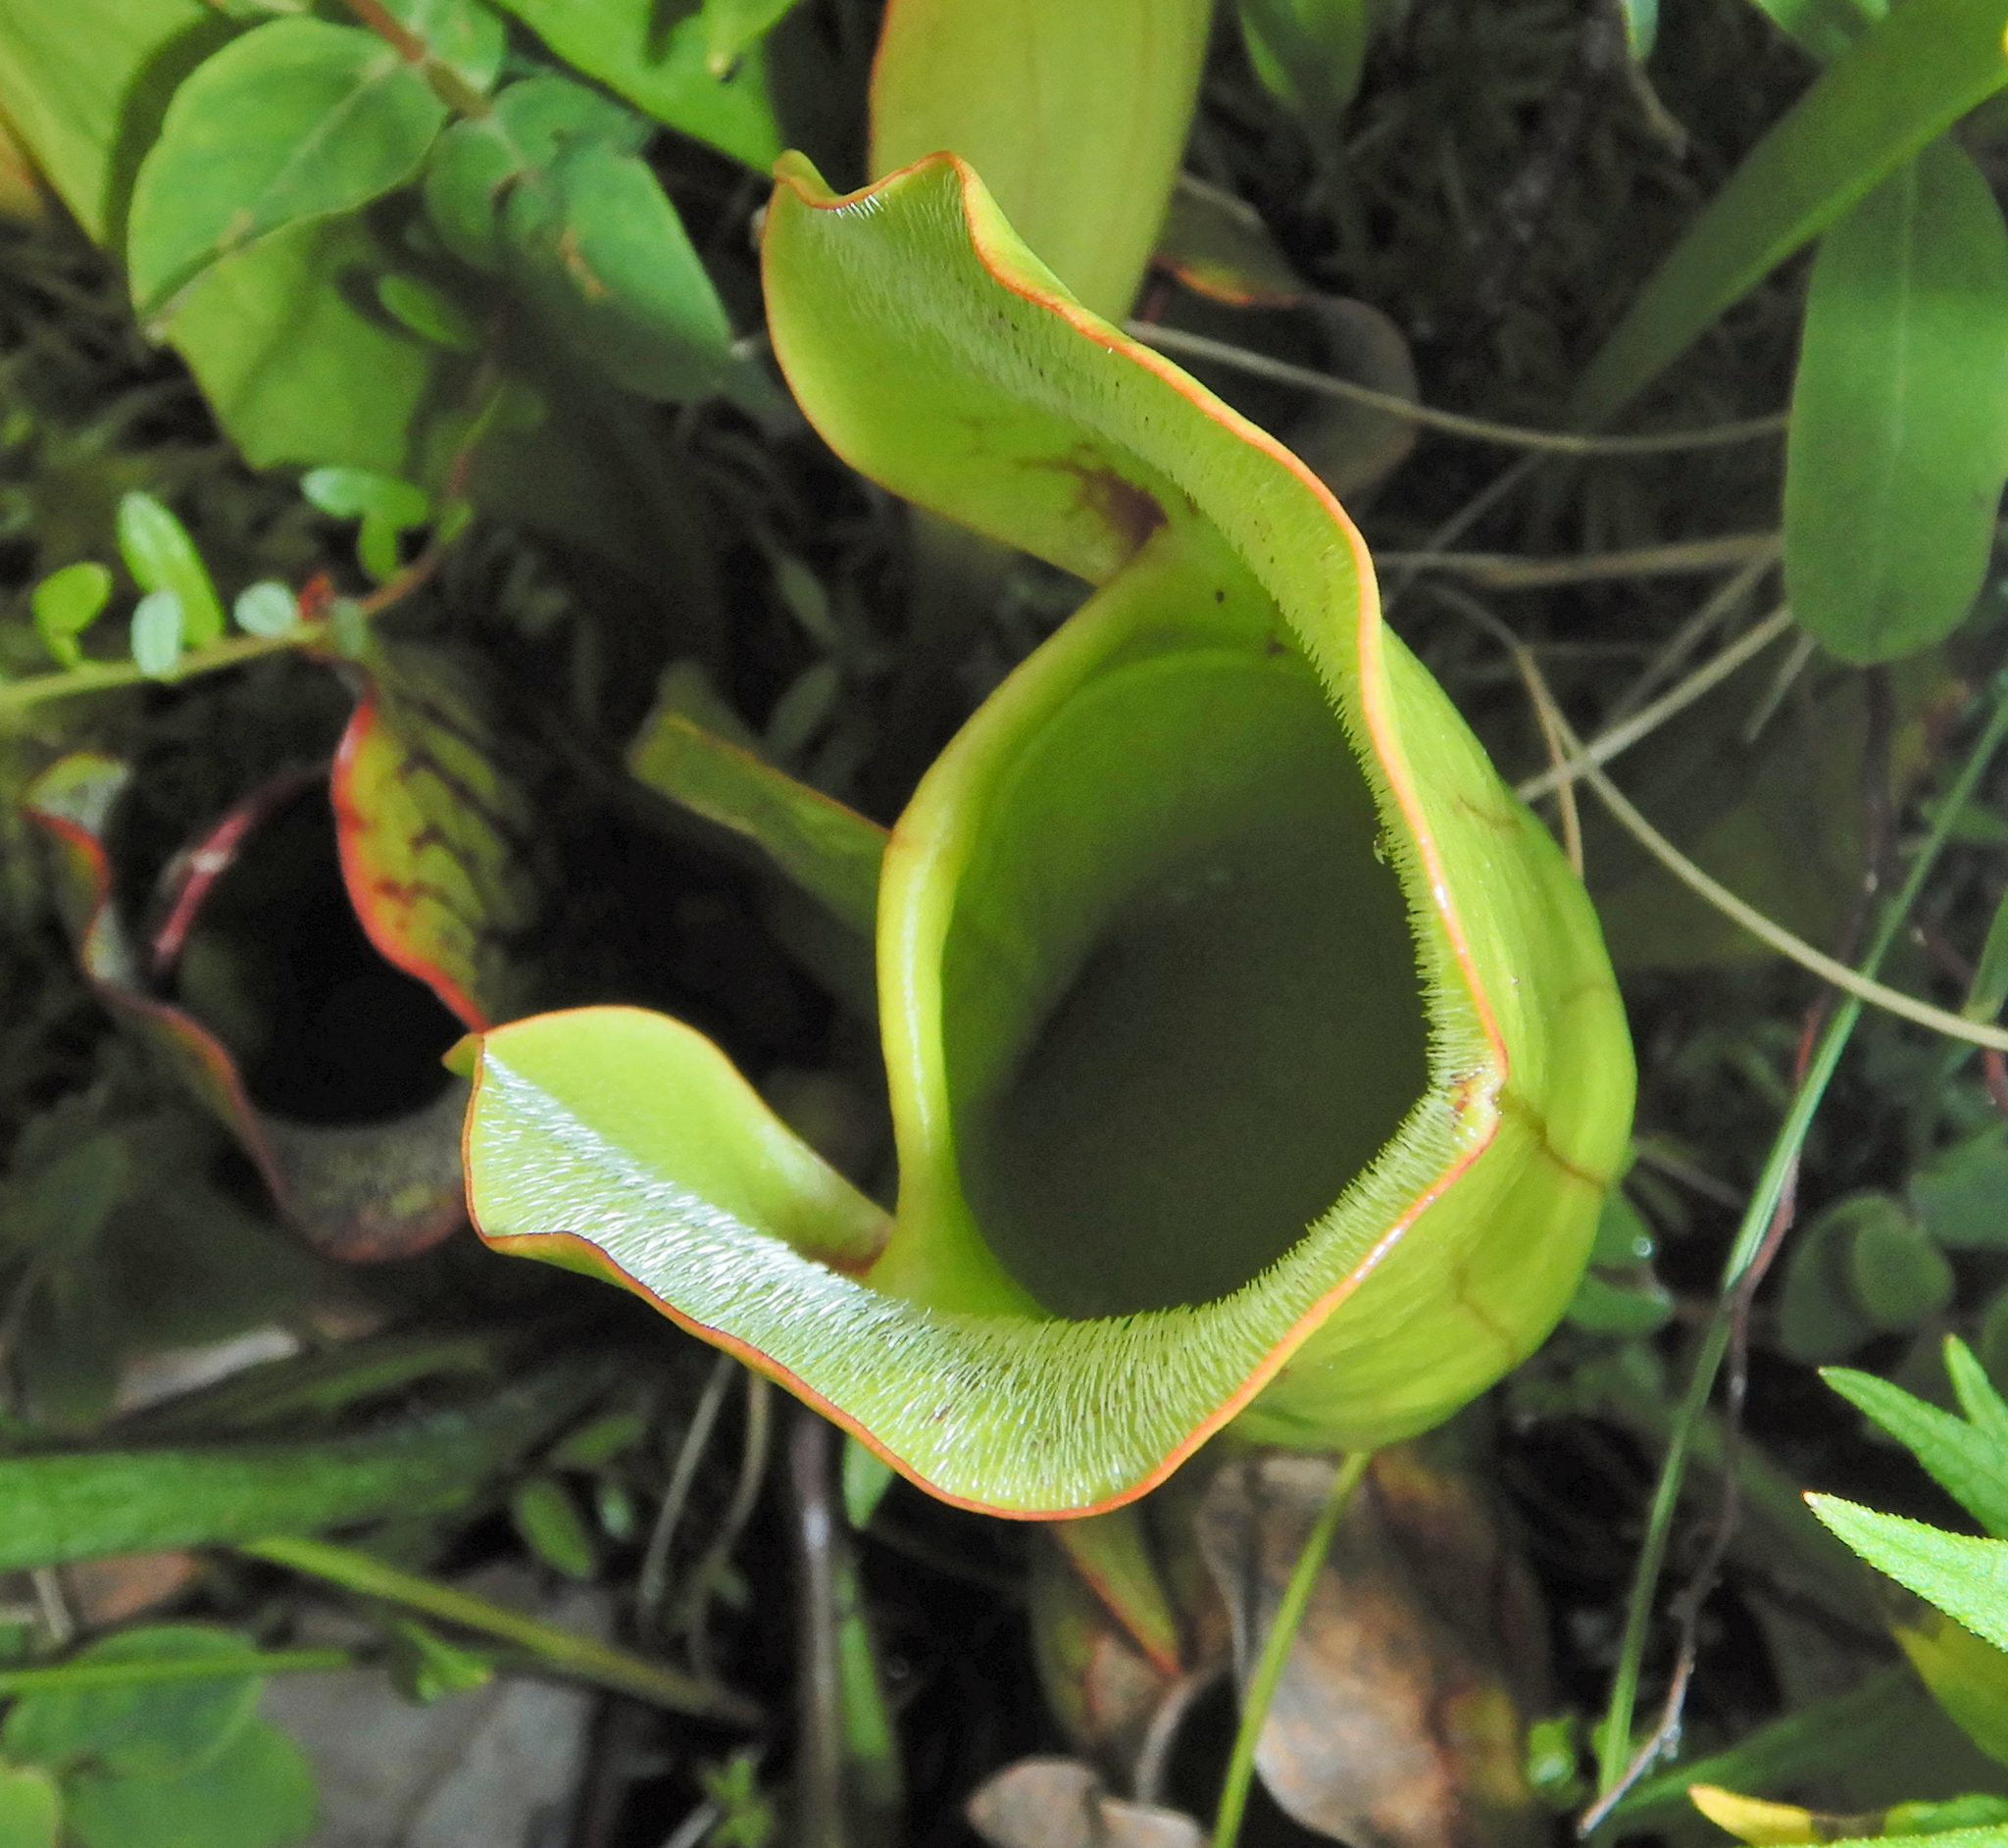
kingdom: Plantae
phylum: Tracheophyta
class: Magnoliopsida
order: Ericales
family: Sarraceniaceae
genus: Sarracenia
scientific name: Sarracenia purpurea
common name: Pitcherplant
